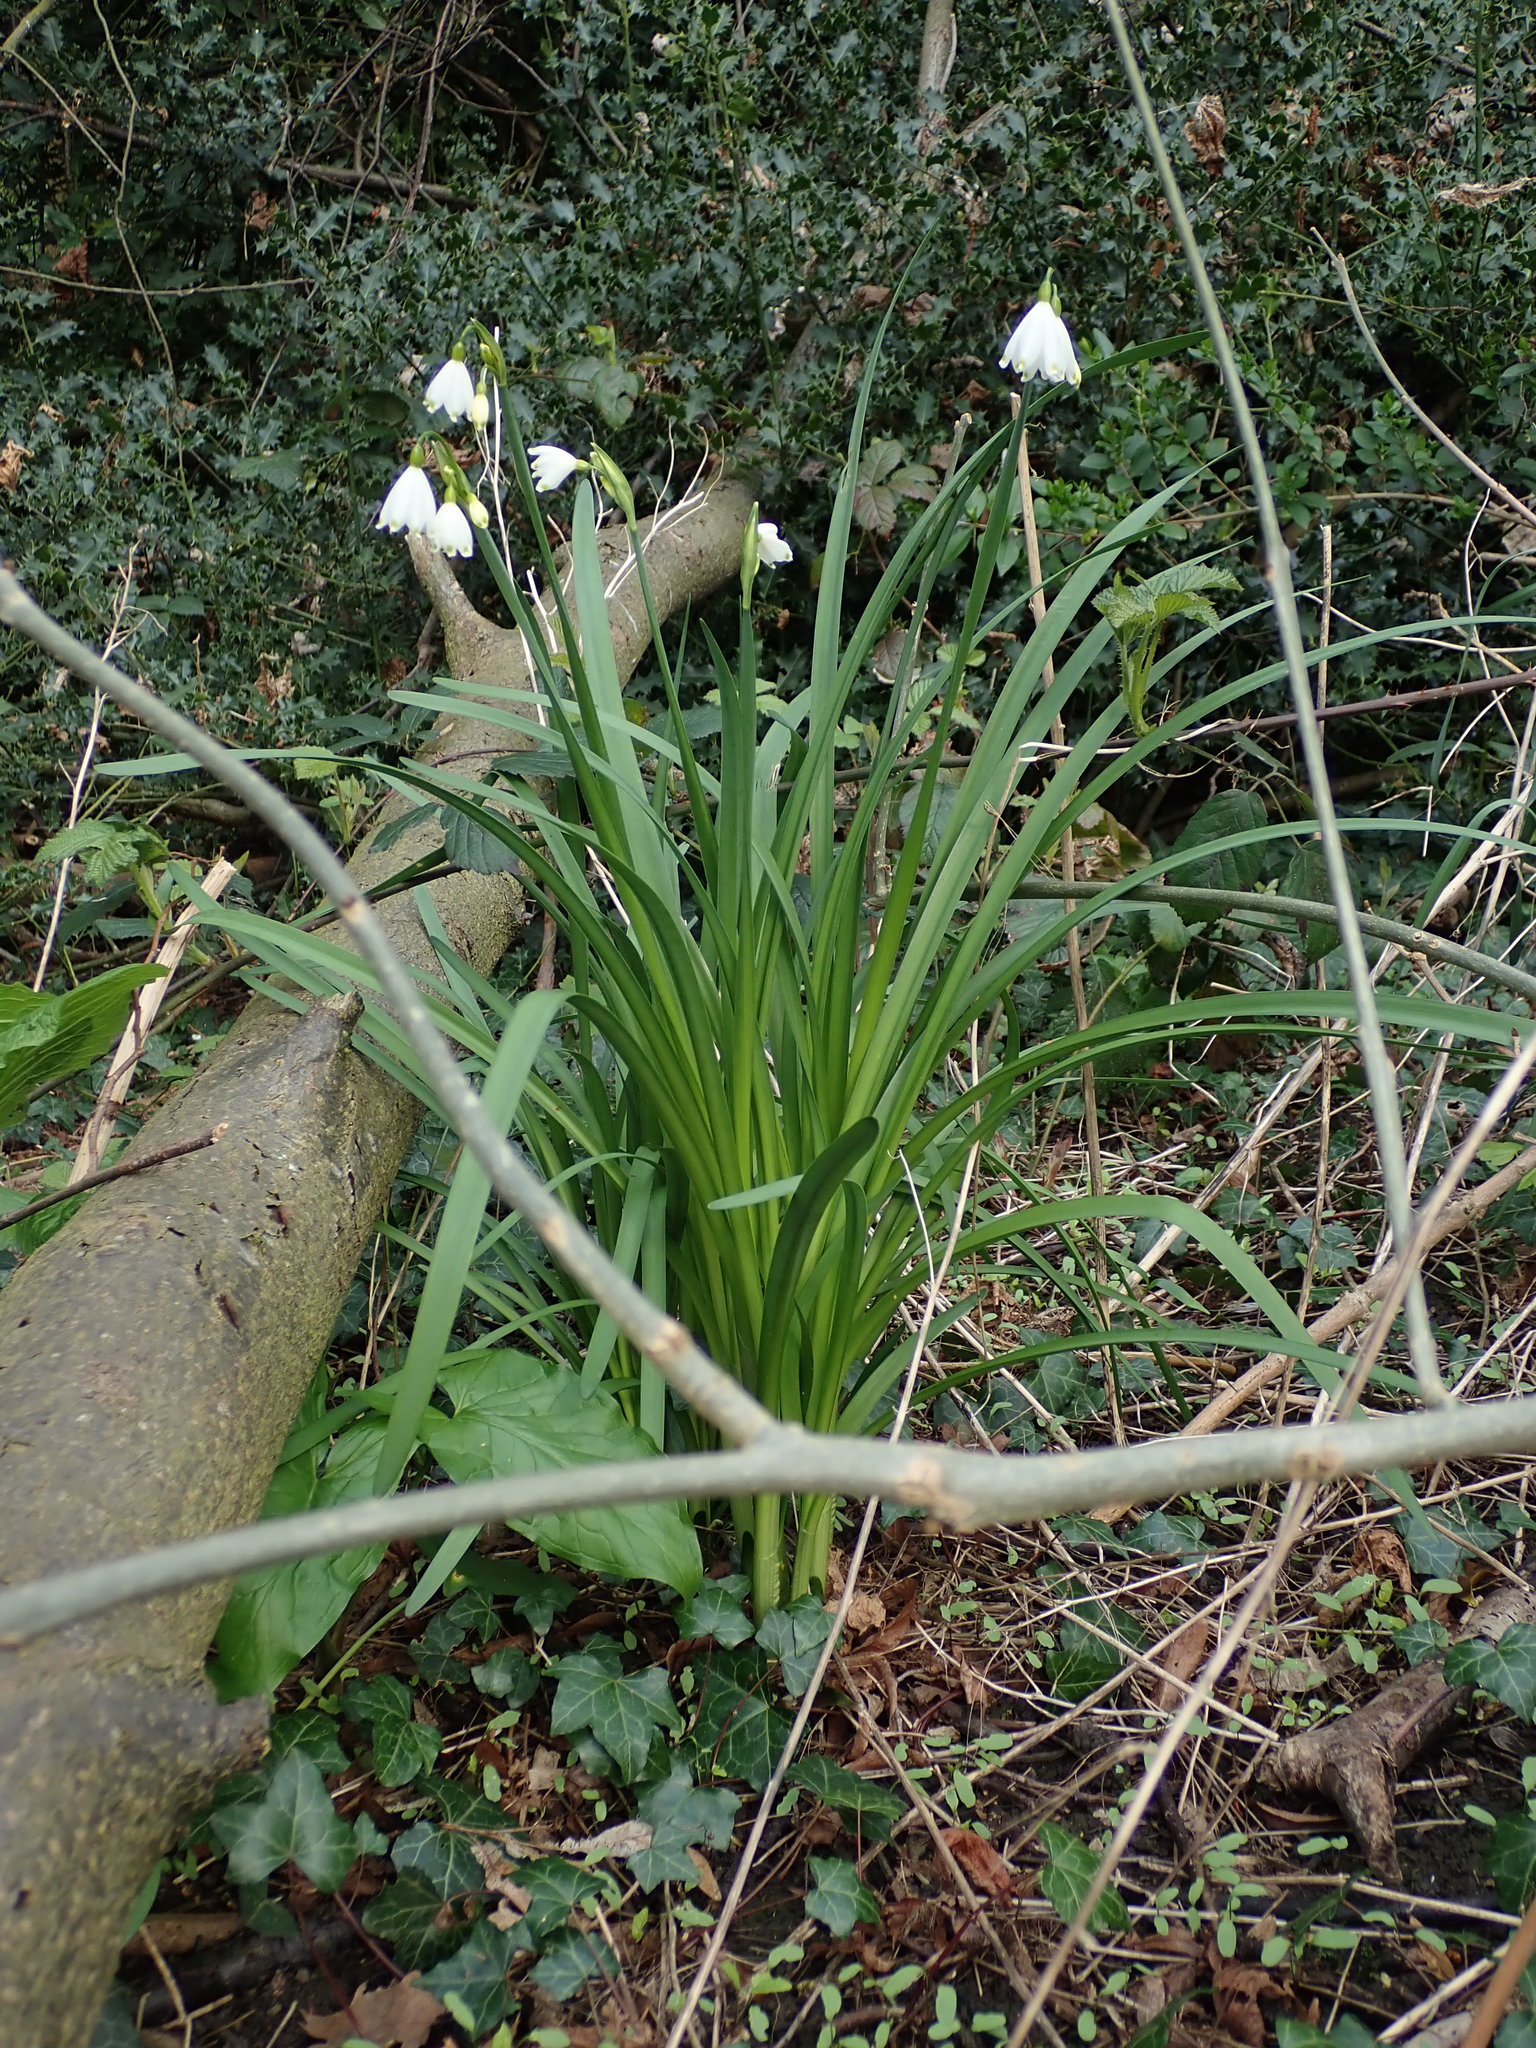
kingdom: Plantae
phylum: Tracheophyta
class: Liliopsida
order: Asparagales
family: Amaryllidaceae
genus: Leucojum
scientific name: Leucojum aestivum
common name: Summer snowflake
